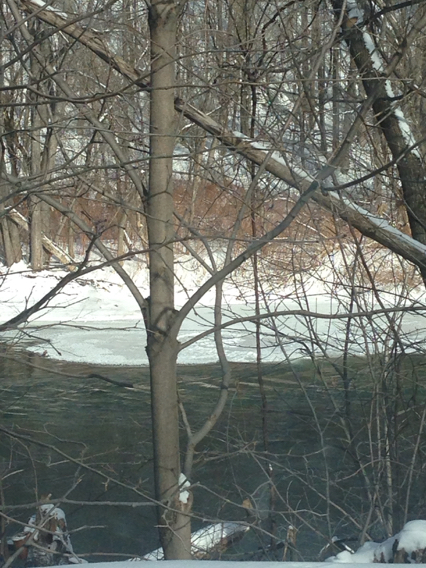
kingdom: Plantae
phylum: Tracheophyta
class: Magnoliopsida
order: Caryophyllales
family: Polygonaceae
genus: Reynoutria
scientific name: Reynoutria japonica
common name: Japanese knotweed
